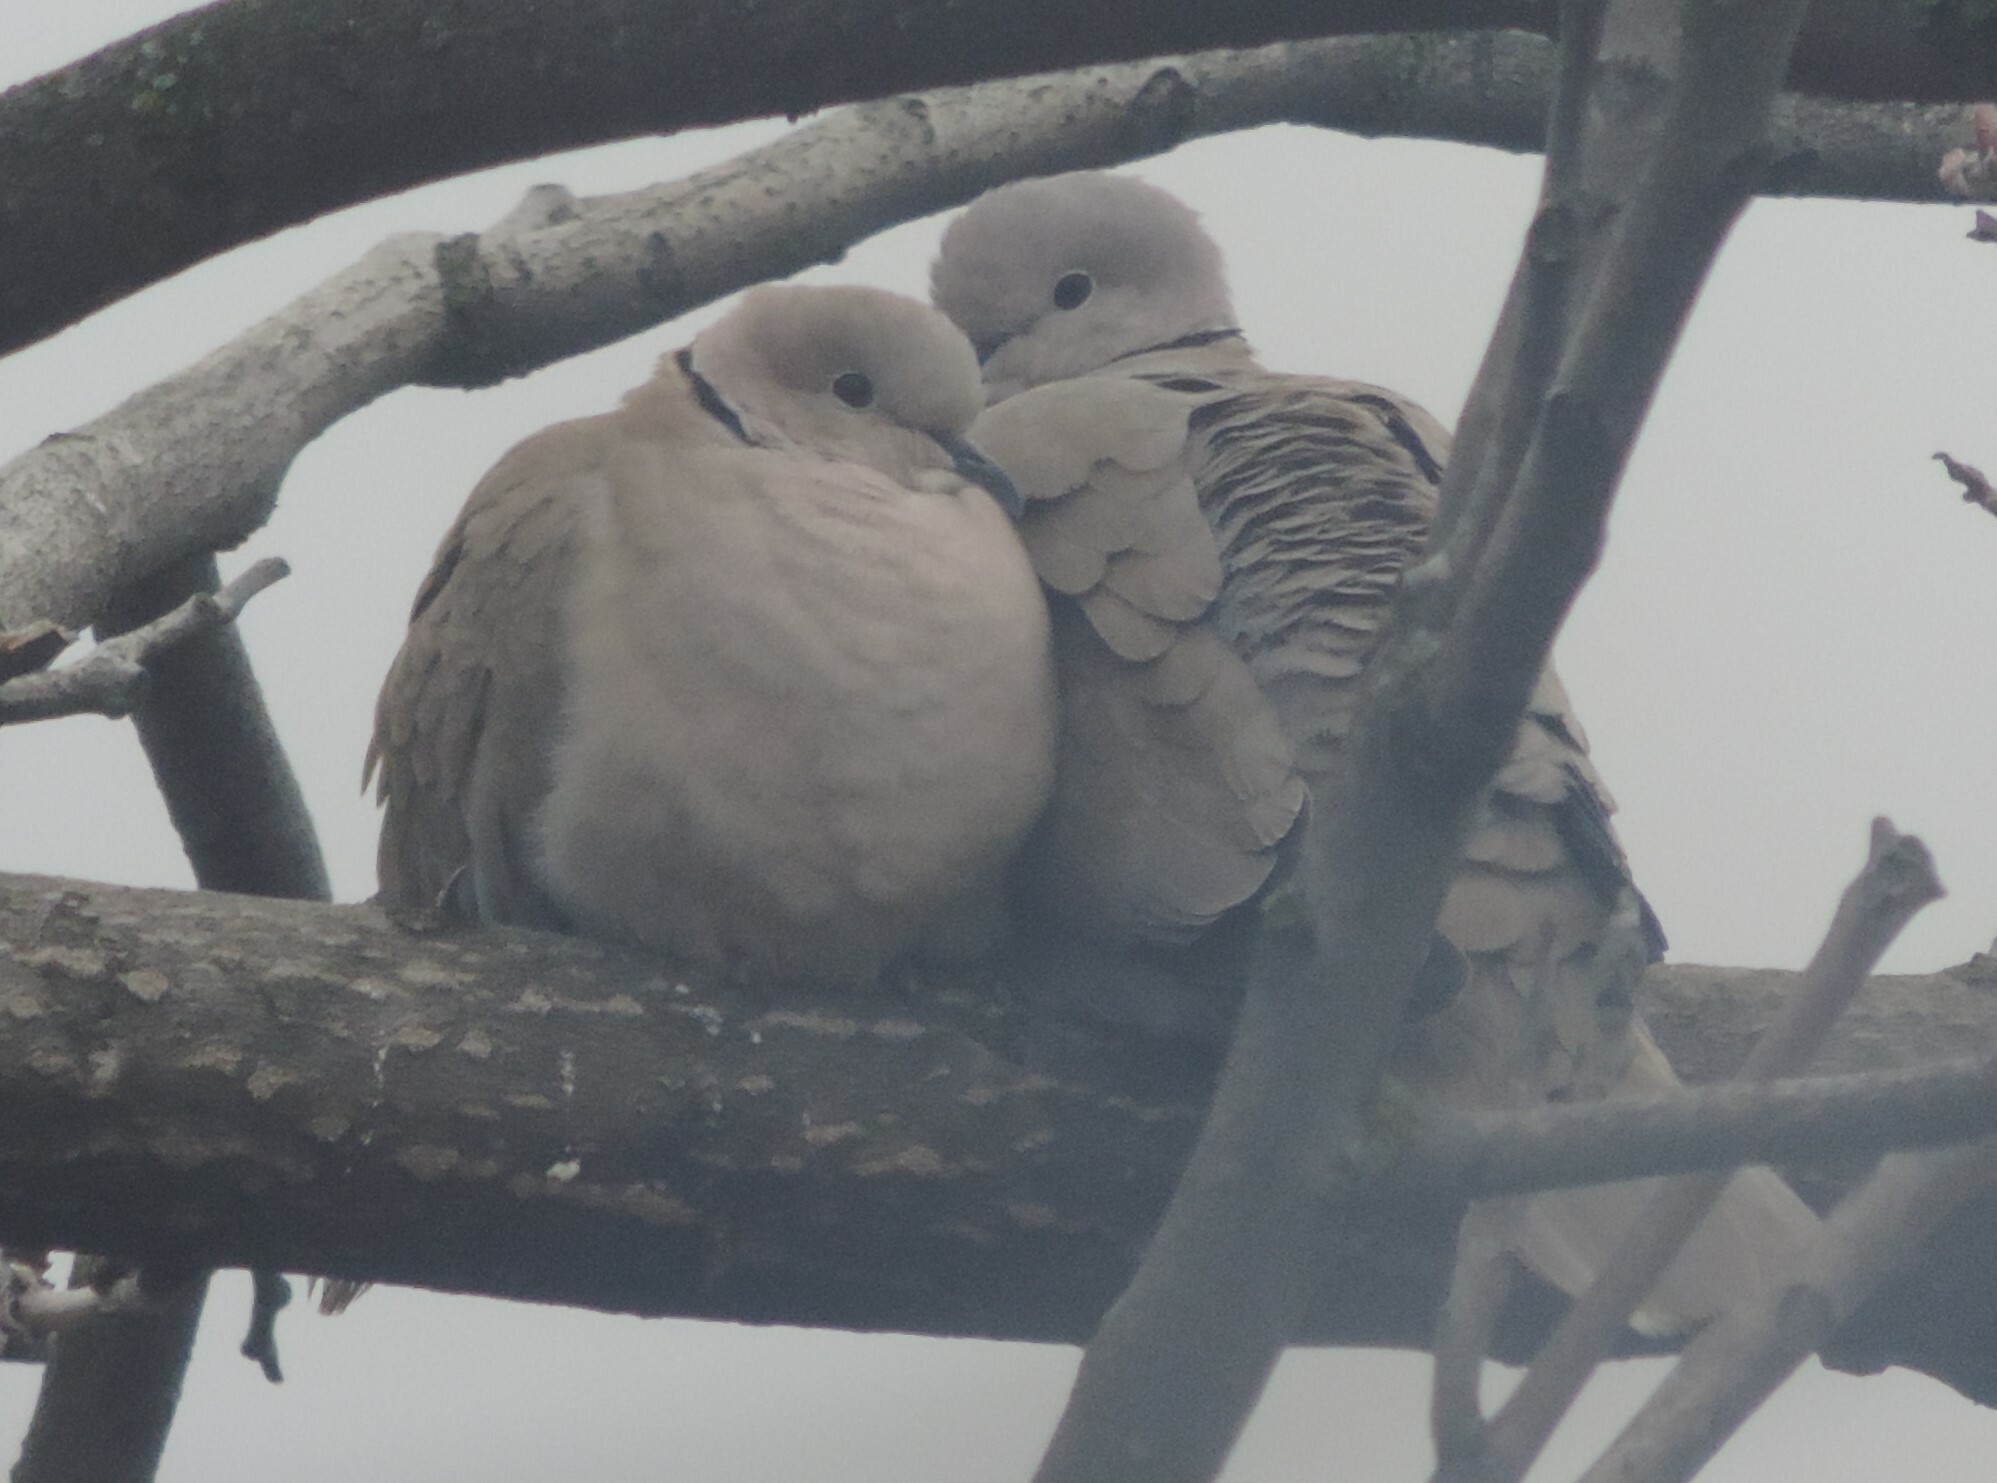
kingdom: Animalia
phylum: Chordata
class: Aves
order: Columbiformes
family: Columbidae
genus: Streptopelia
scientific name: Streptopelia decaocto
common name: Eurasian collared dove
